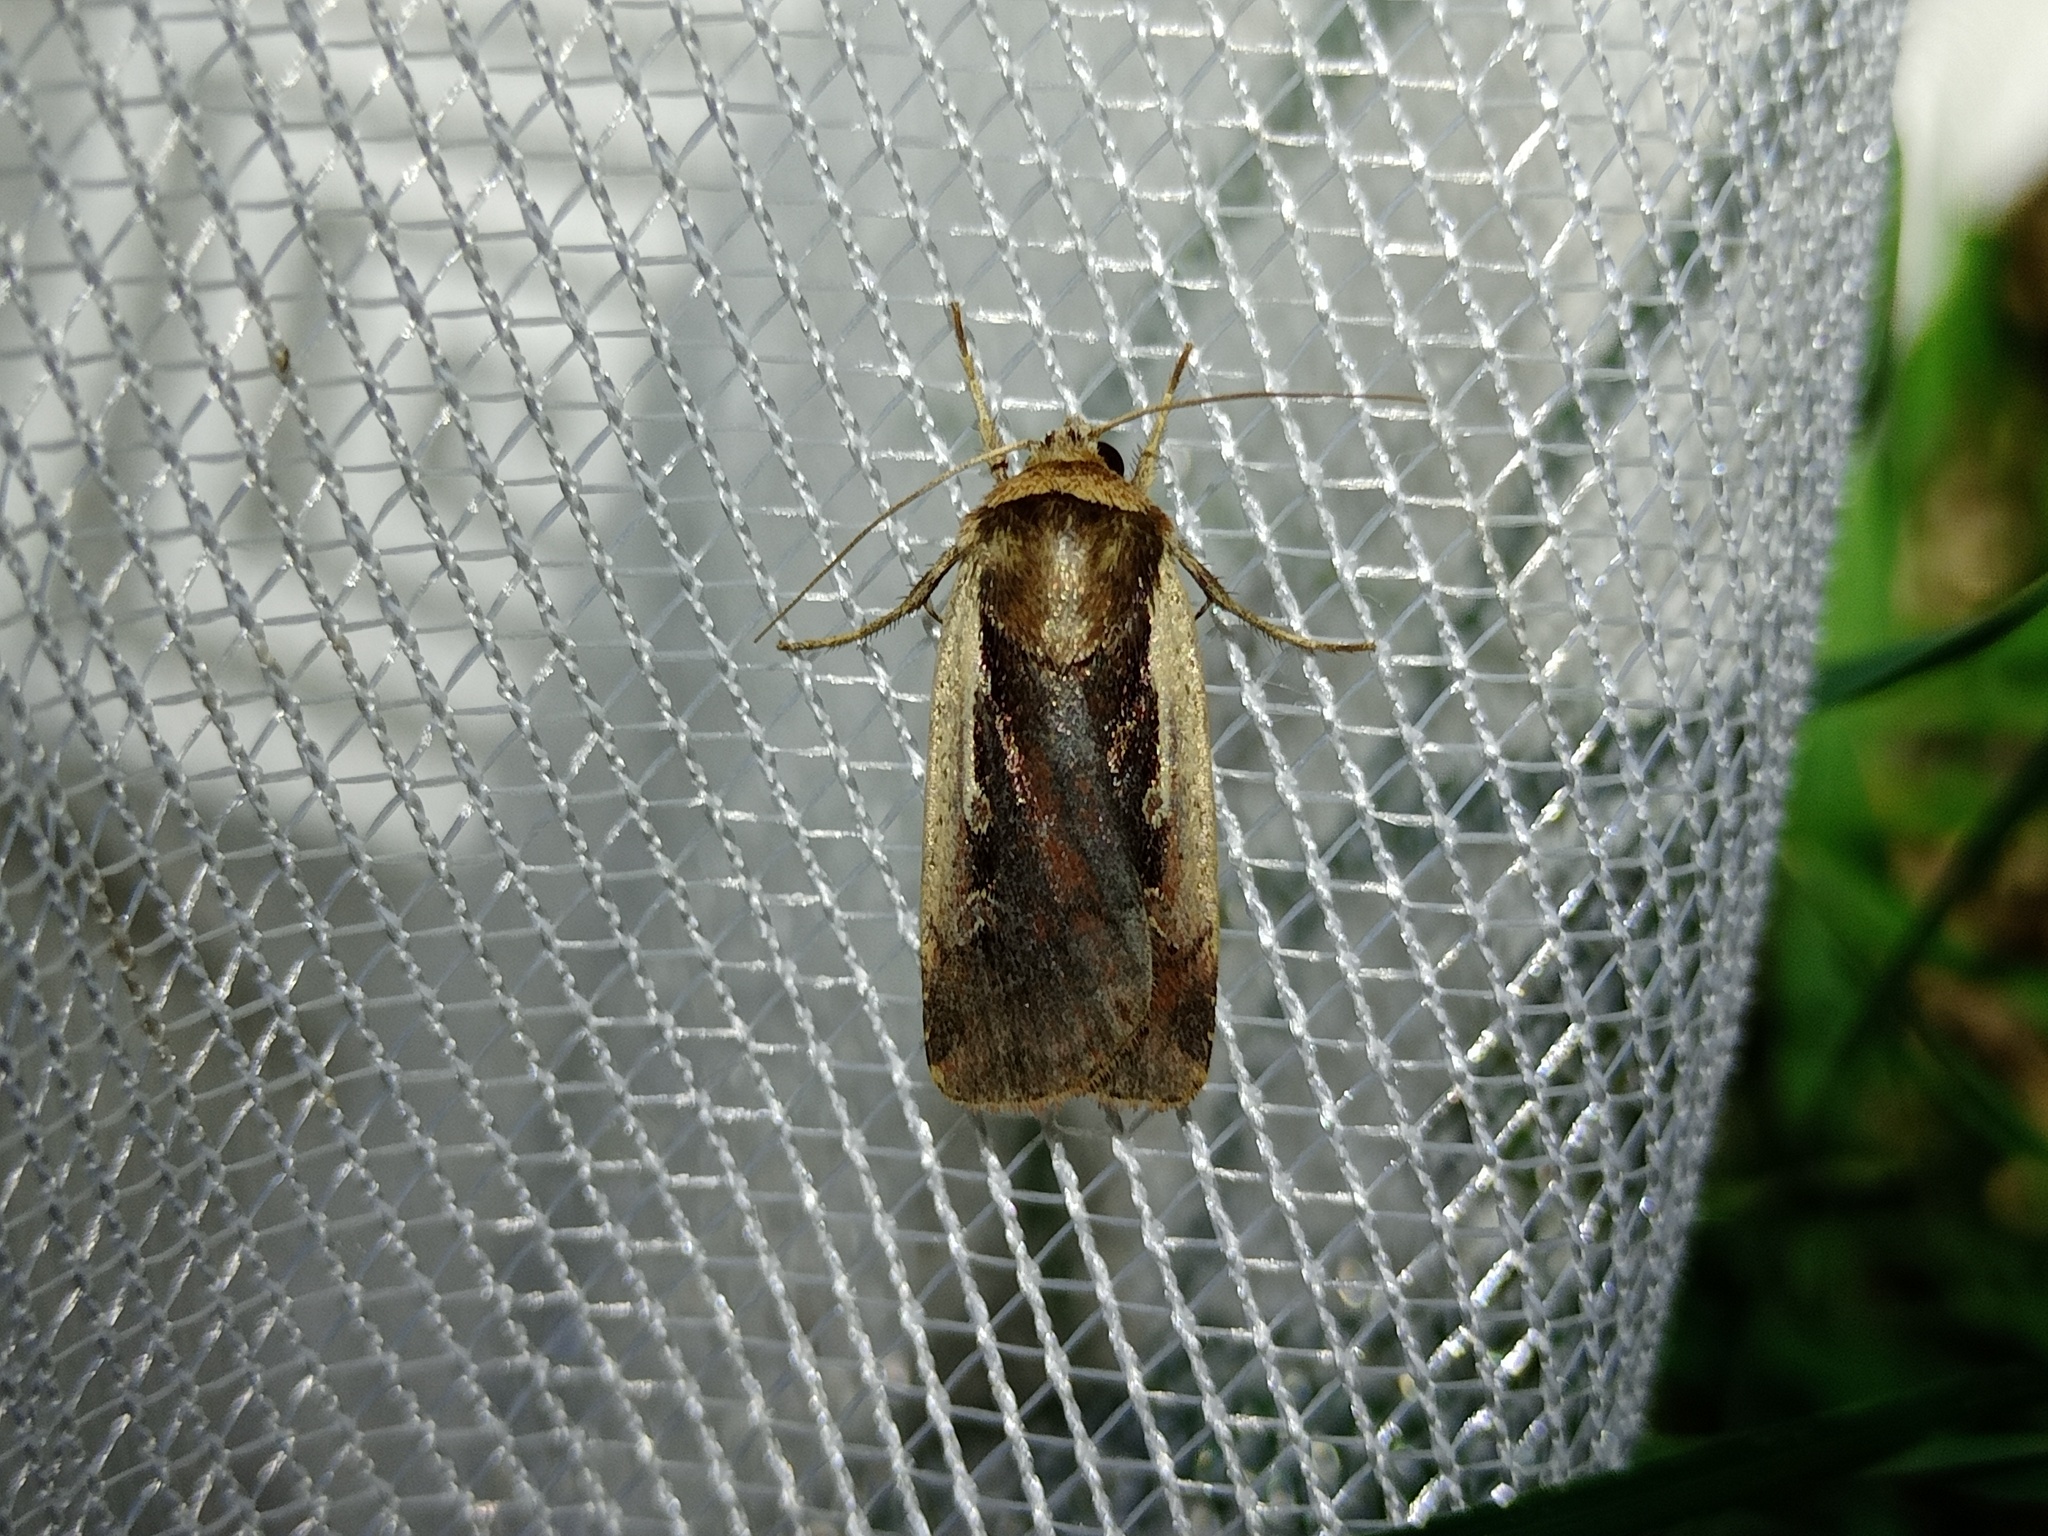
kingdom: Animalia
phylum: Arthropoda
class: Insecta
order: Lepidoptera
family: Noctuidae
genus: Ochropleura
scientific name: Ochropleura plecta
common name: Flame shoulder
